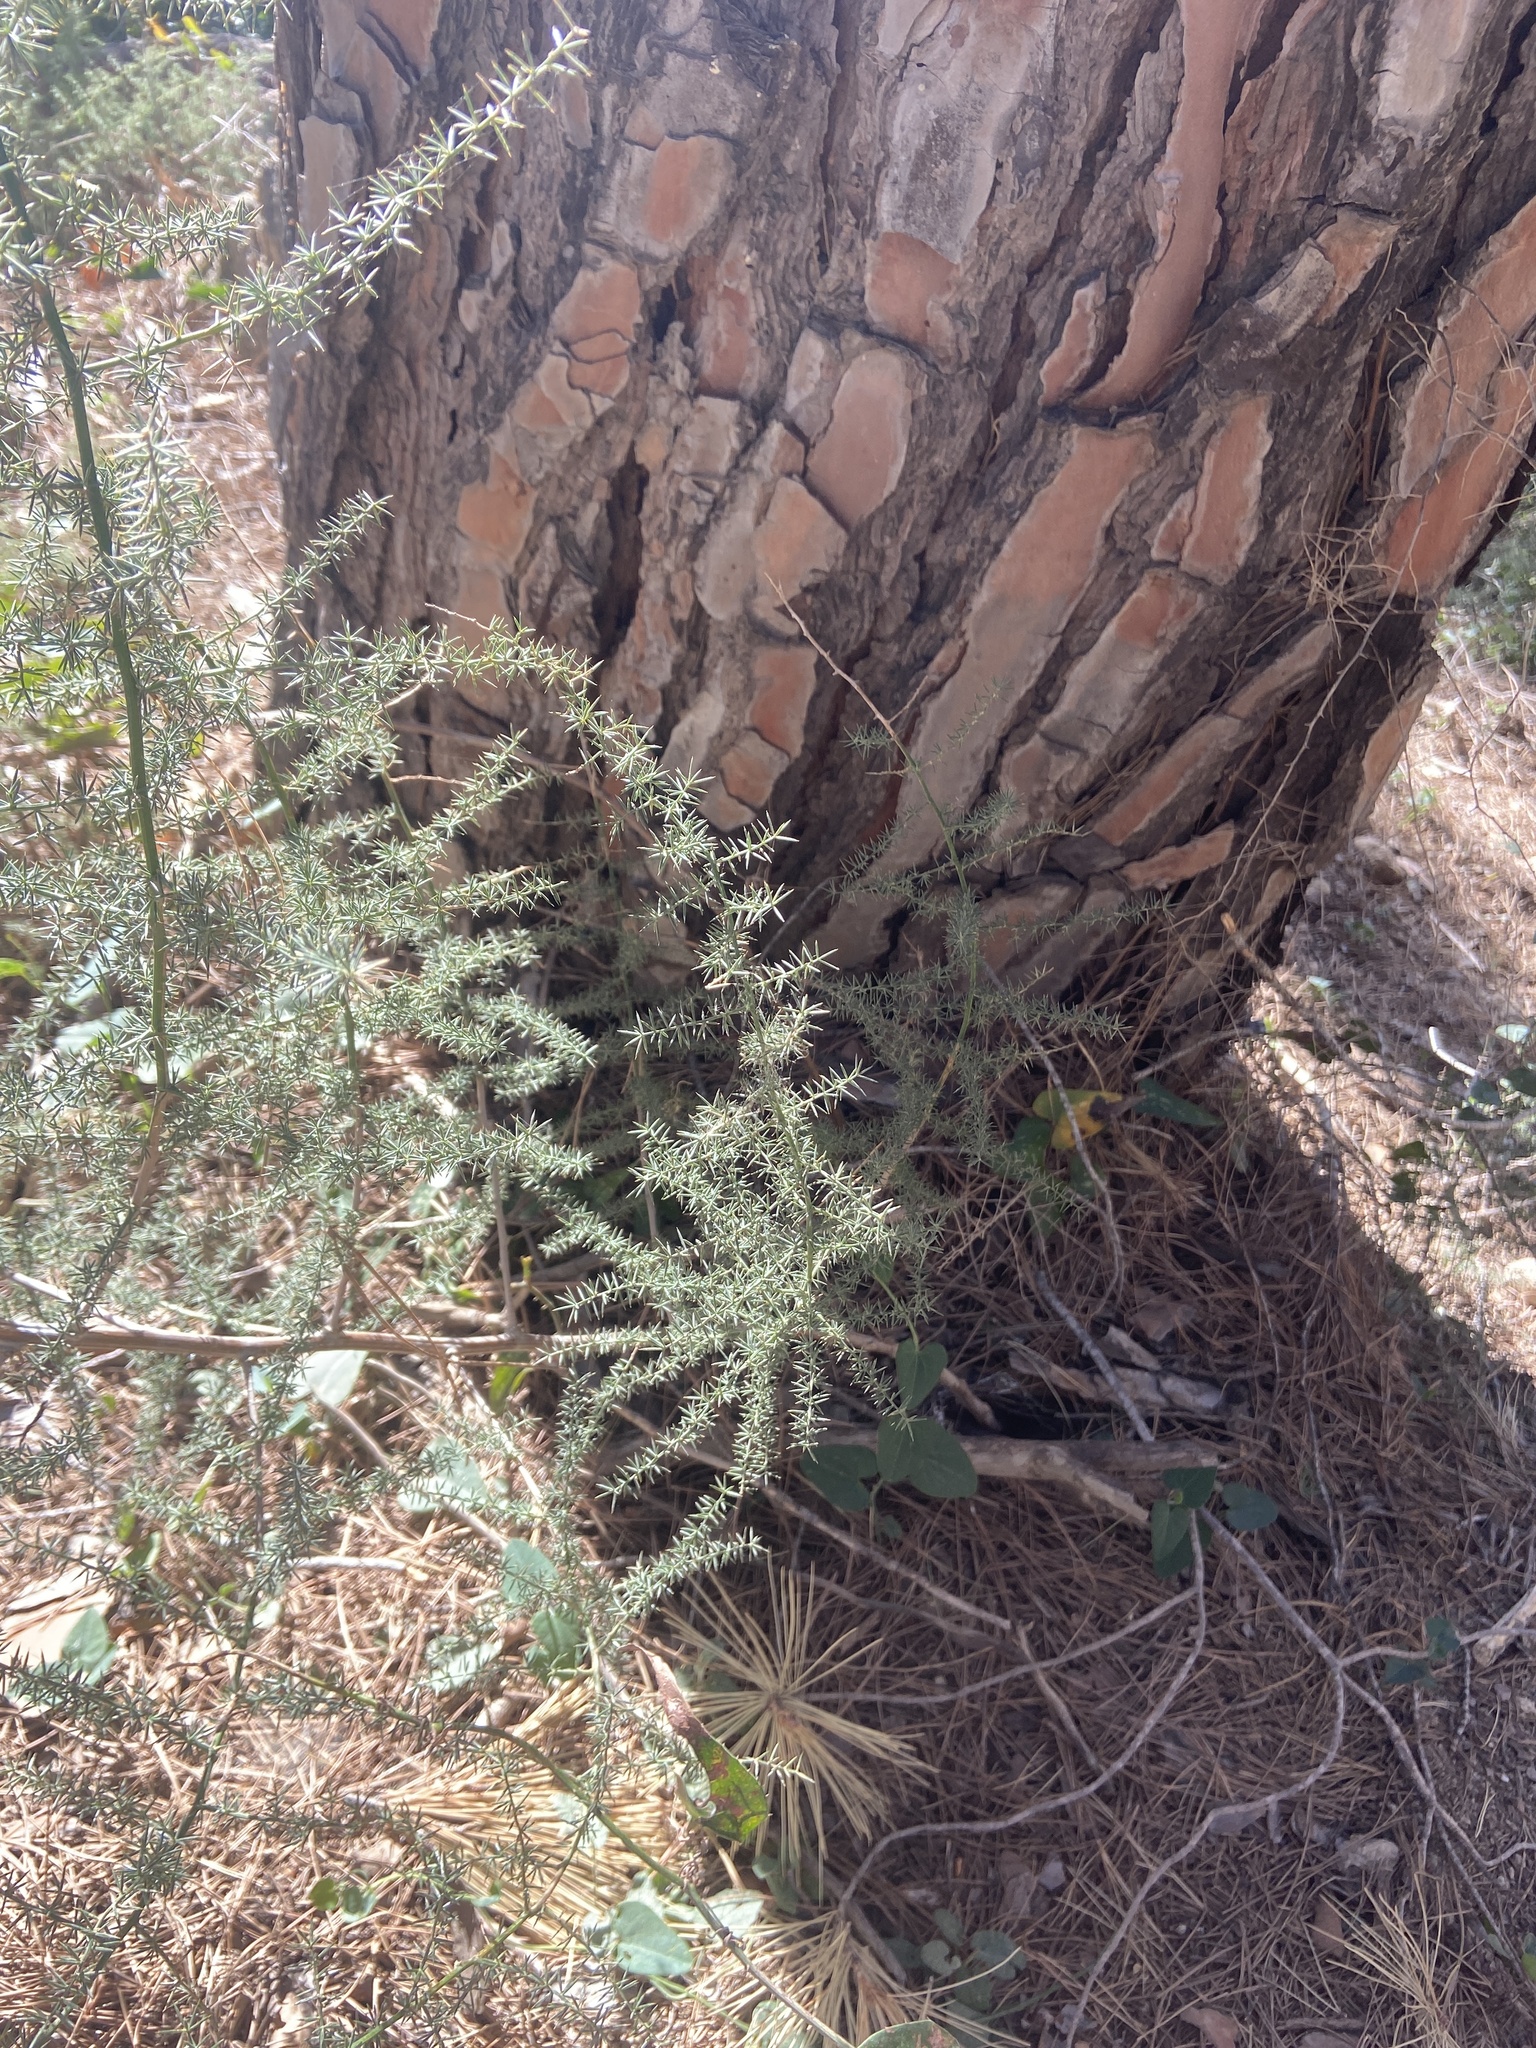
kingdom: Plantae
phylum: Tracheophyta
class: Liliopsida
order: Asparagales
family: Asparagaceae
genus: Asparagus
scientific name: Asparagus acutifolius
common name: Wild asparagus
